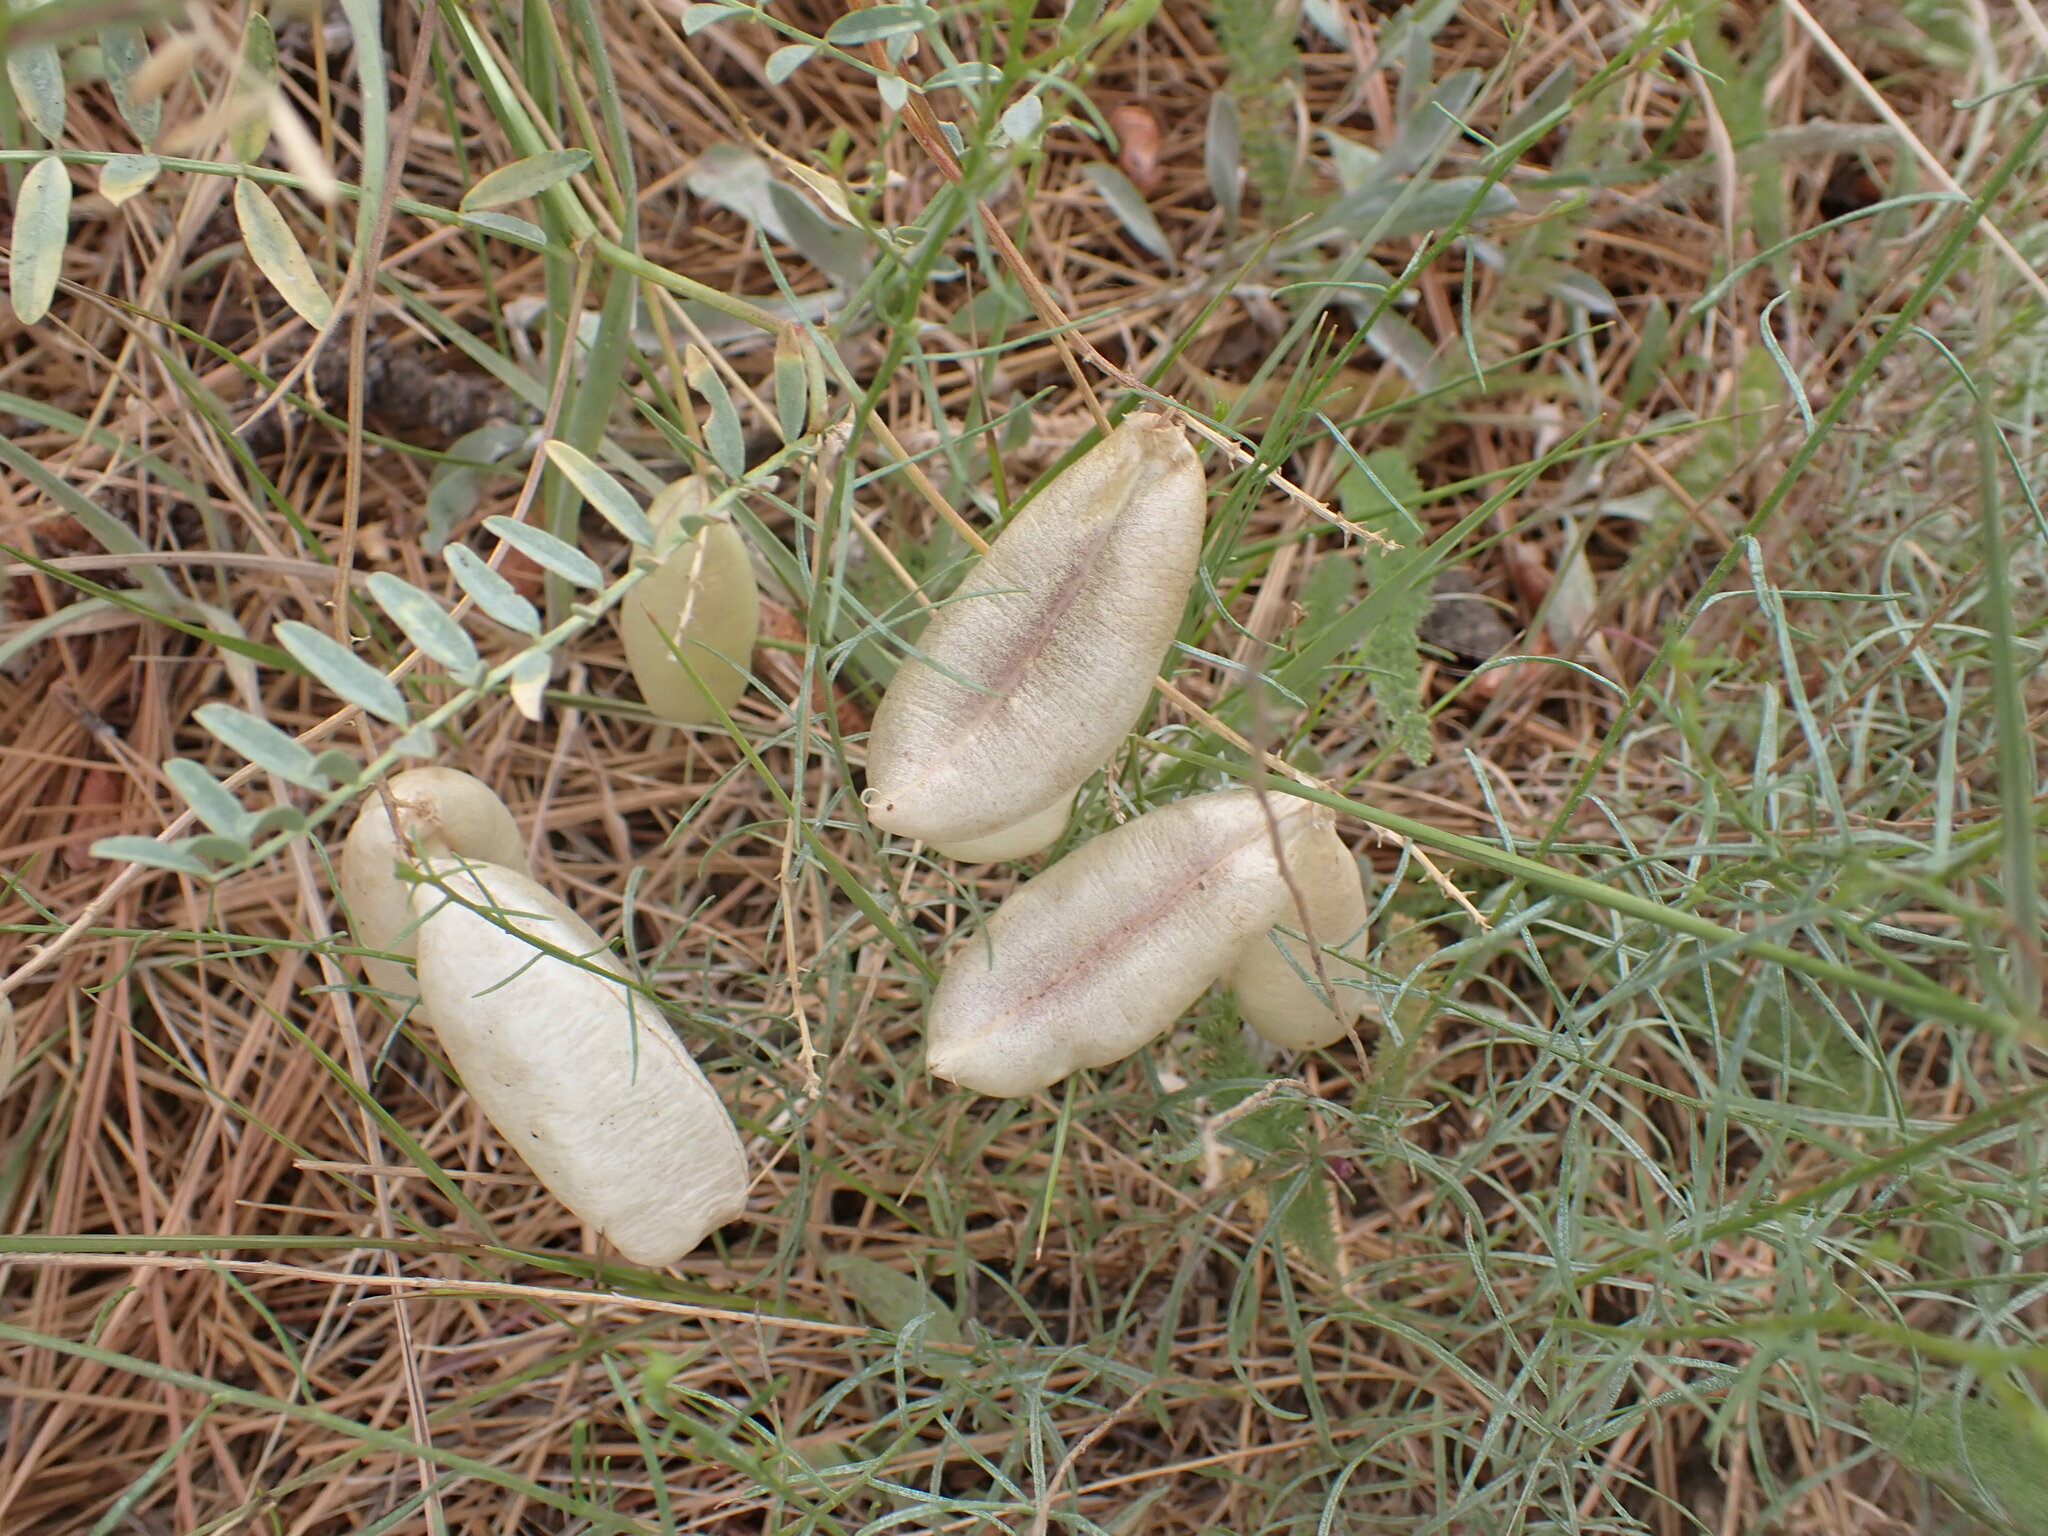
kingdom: Plantae
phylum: Tracheophyta
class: Magnoliopsida
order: Fabales
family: Fabaceae
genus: Astragalus
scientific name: Astragalus douglasii
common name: Jacumba milkvetch
